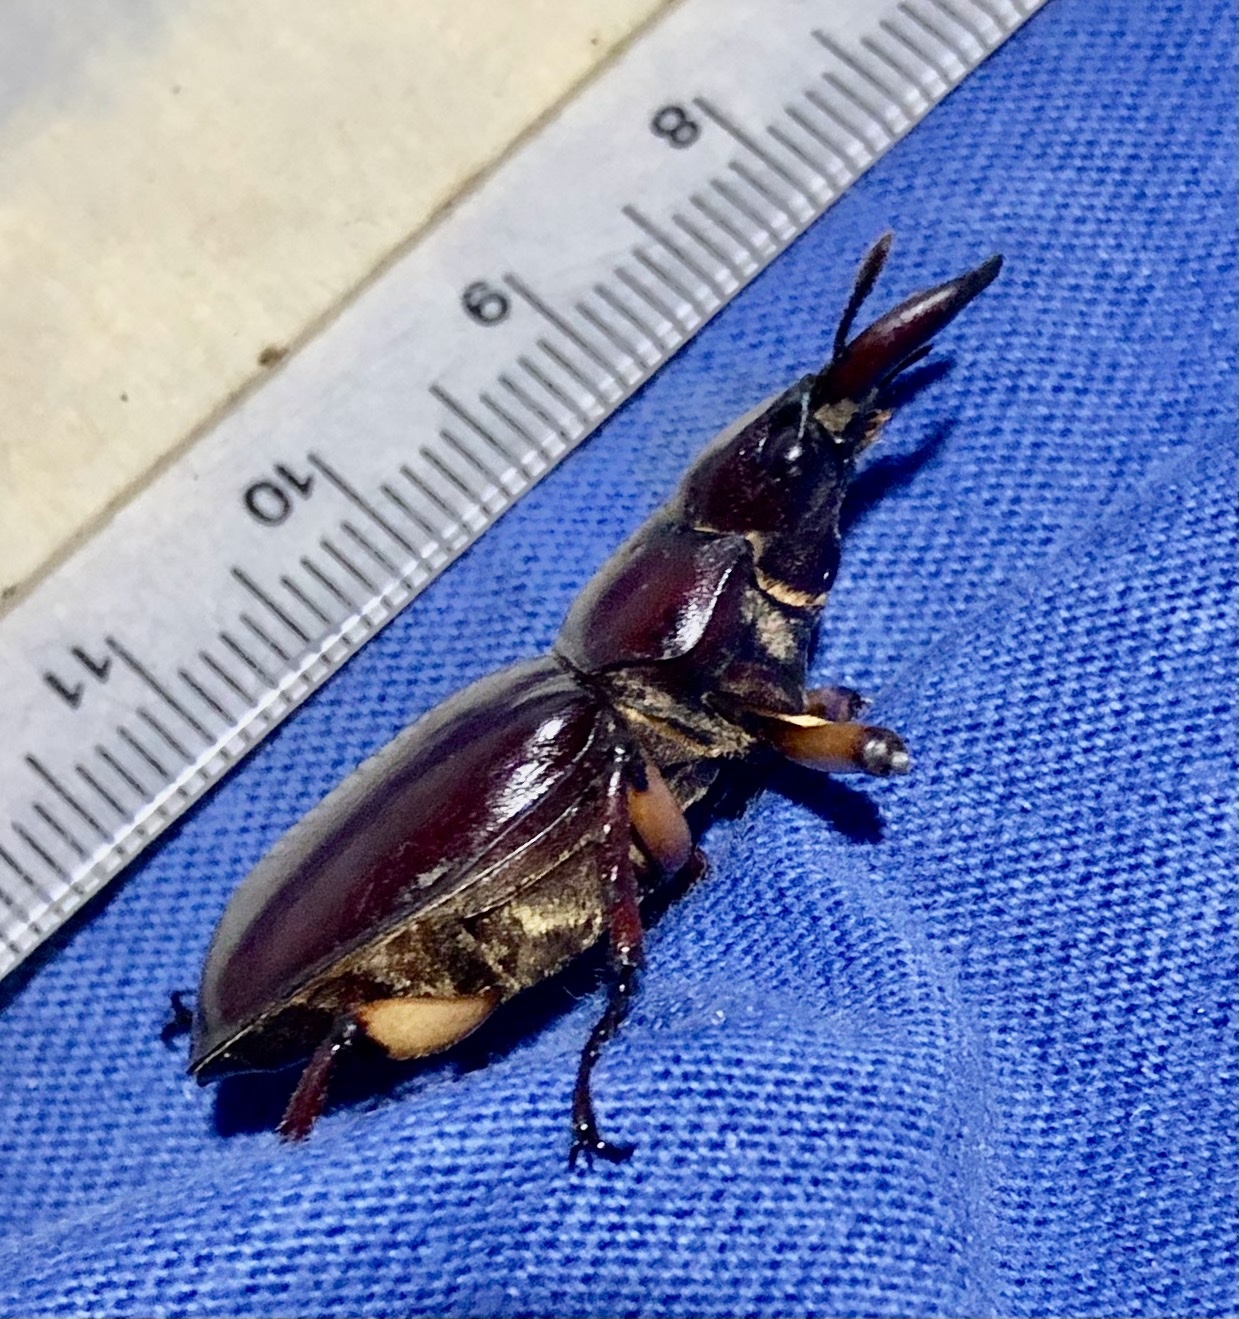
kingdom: Animalia
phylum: Arthropoda
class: Insecta
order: Coleoptera
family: Lucanidae
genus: Lucanus
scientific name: Lucanus capreolus
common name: Stag beetle
